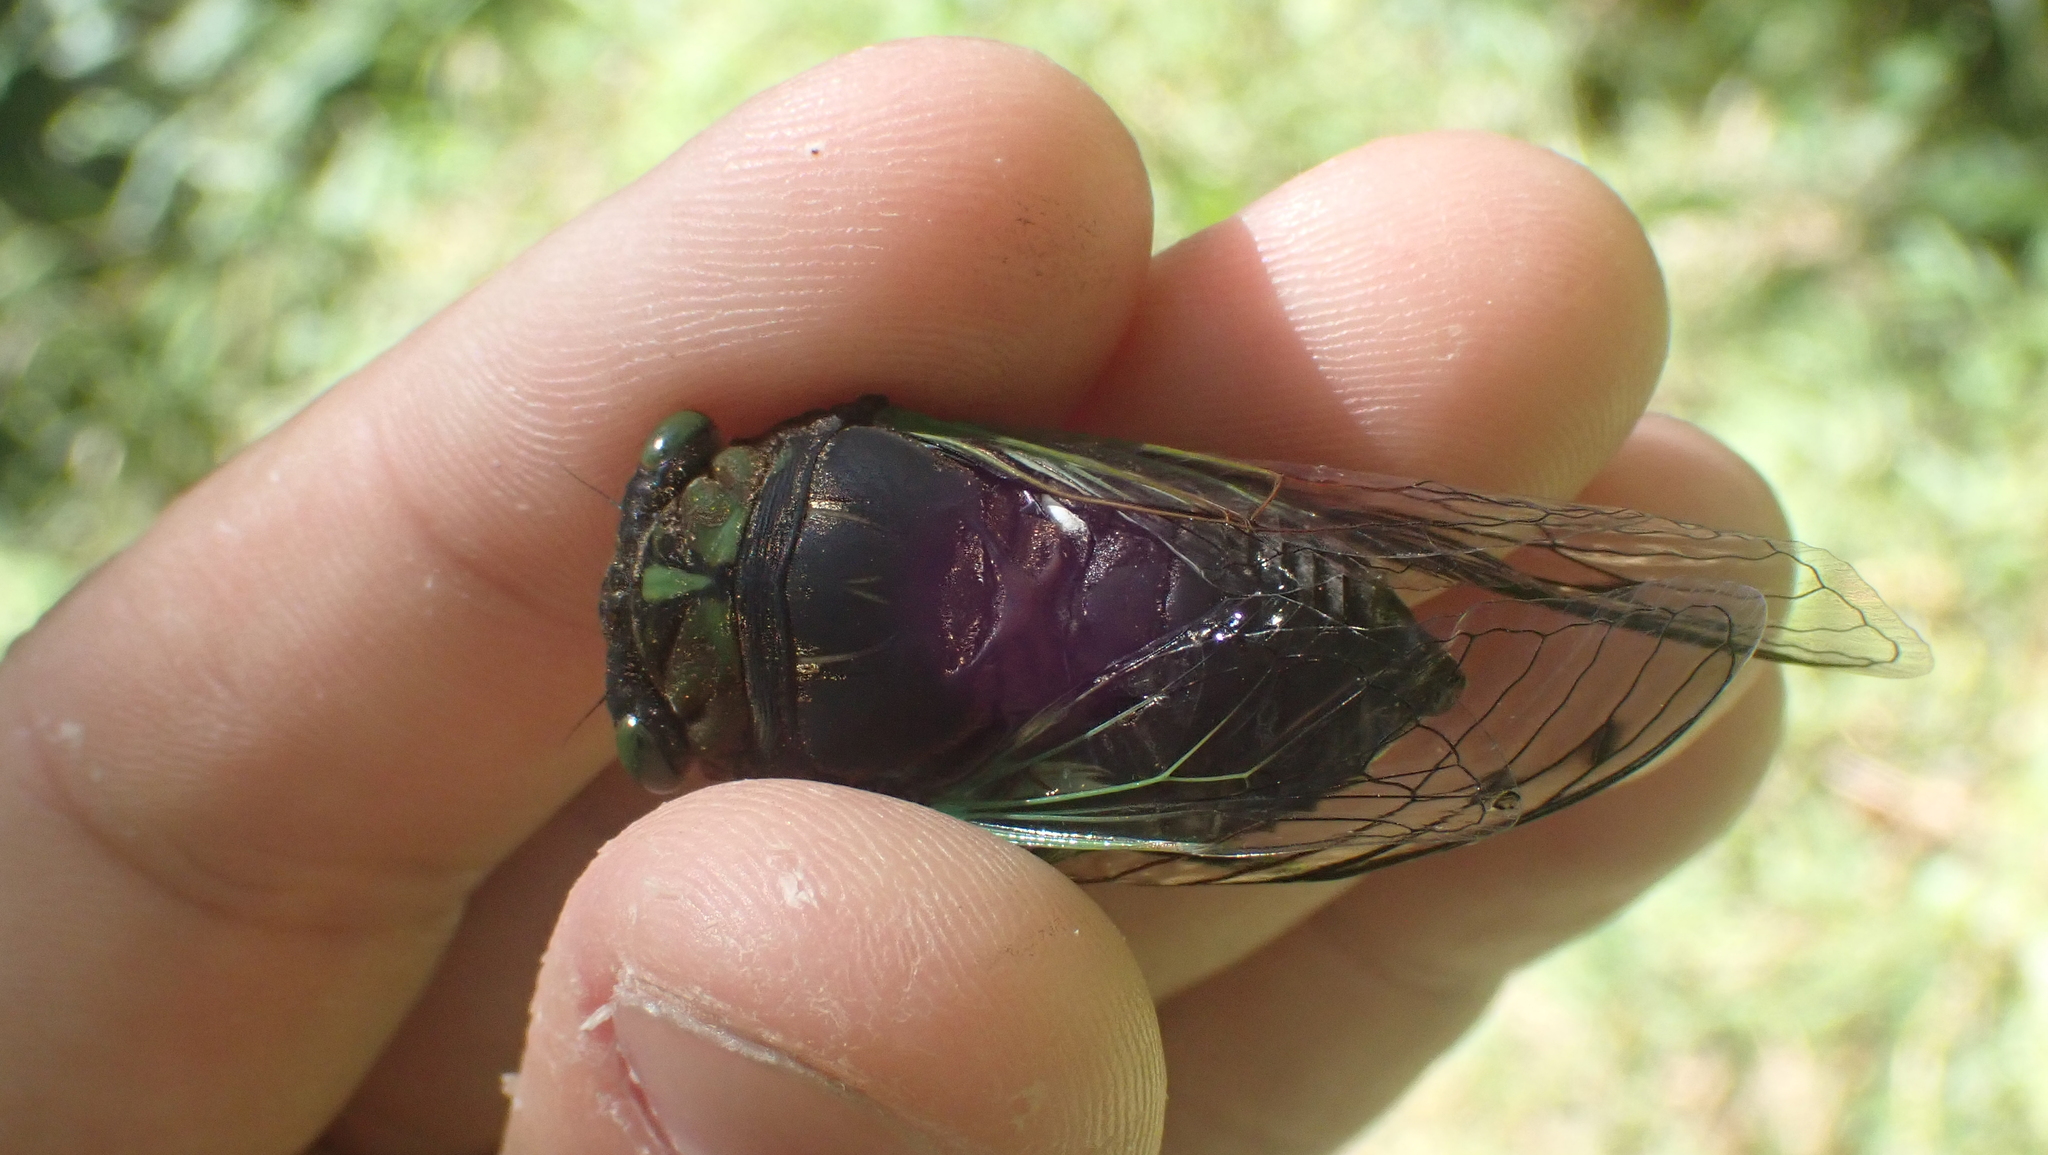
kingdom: Animalia
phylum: Arthropoda
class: Insecta
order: Hemiptera
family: Cicadidae
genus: Neotibicen
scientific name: Neotibicen tibicen
